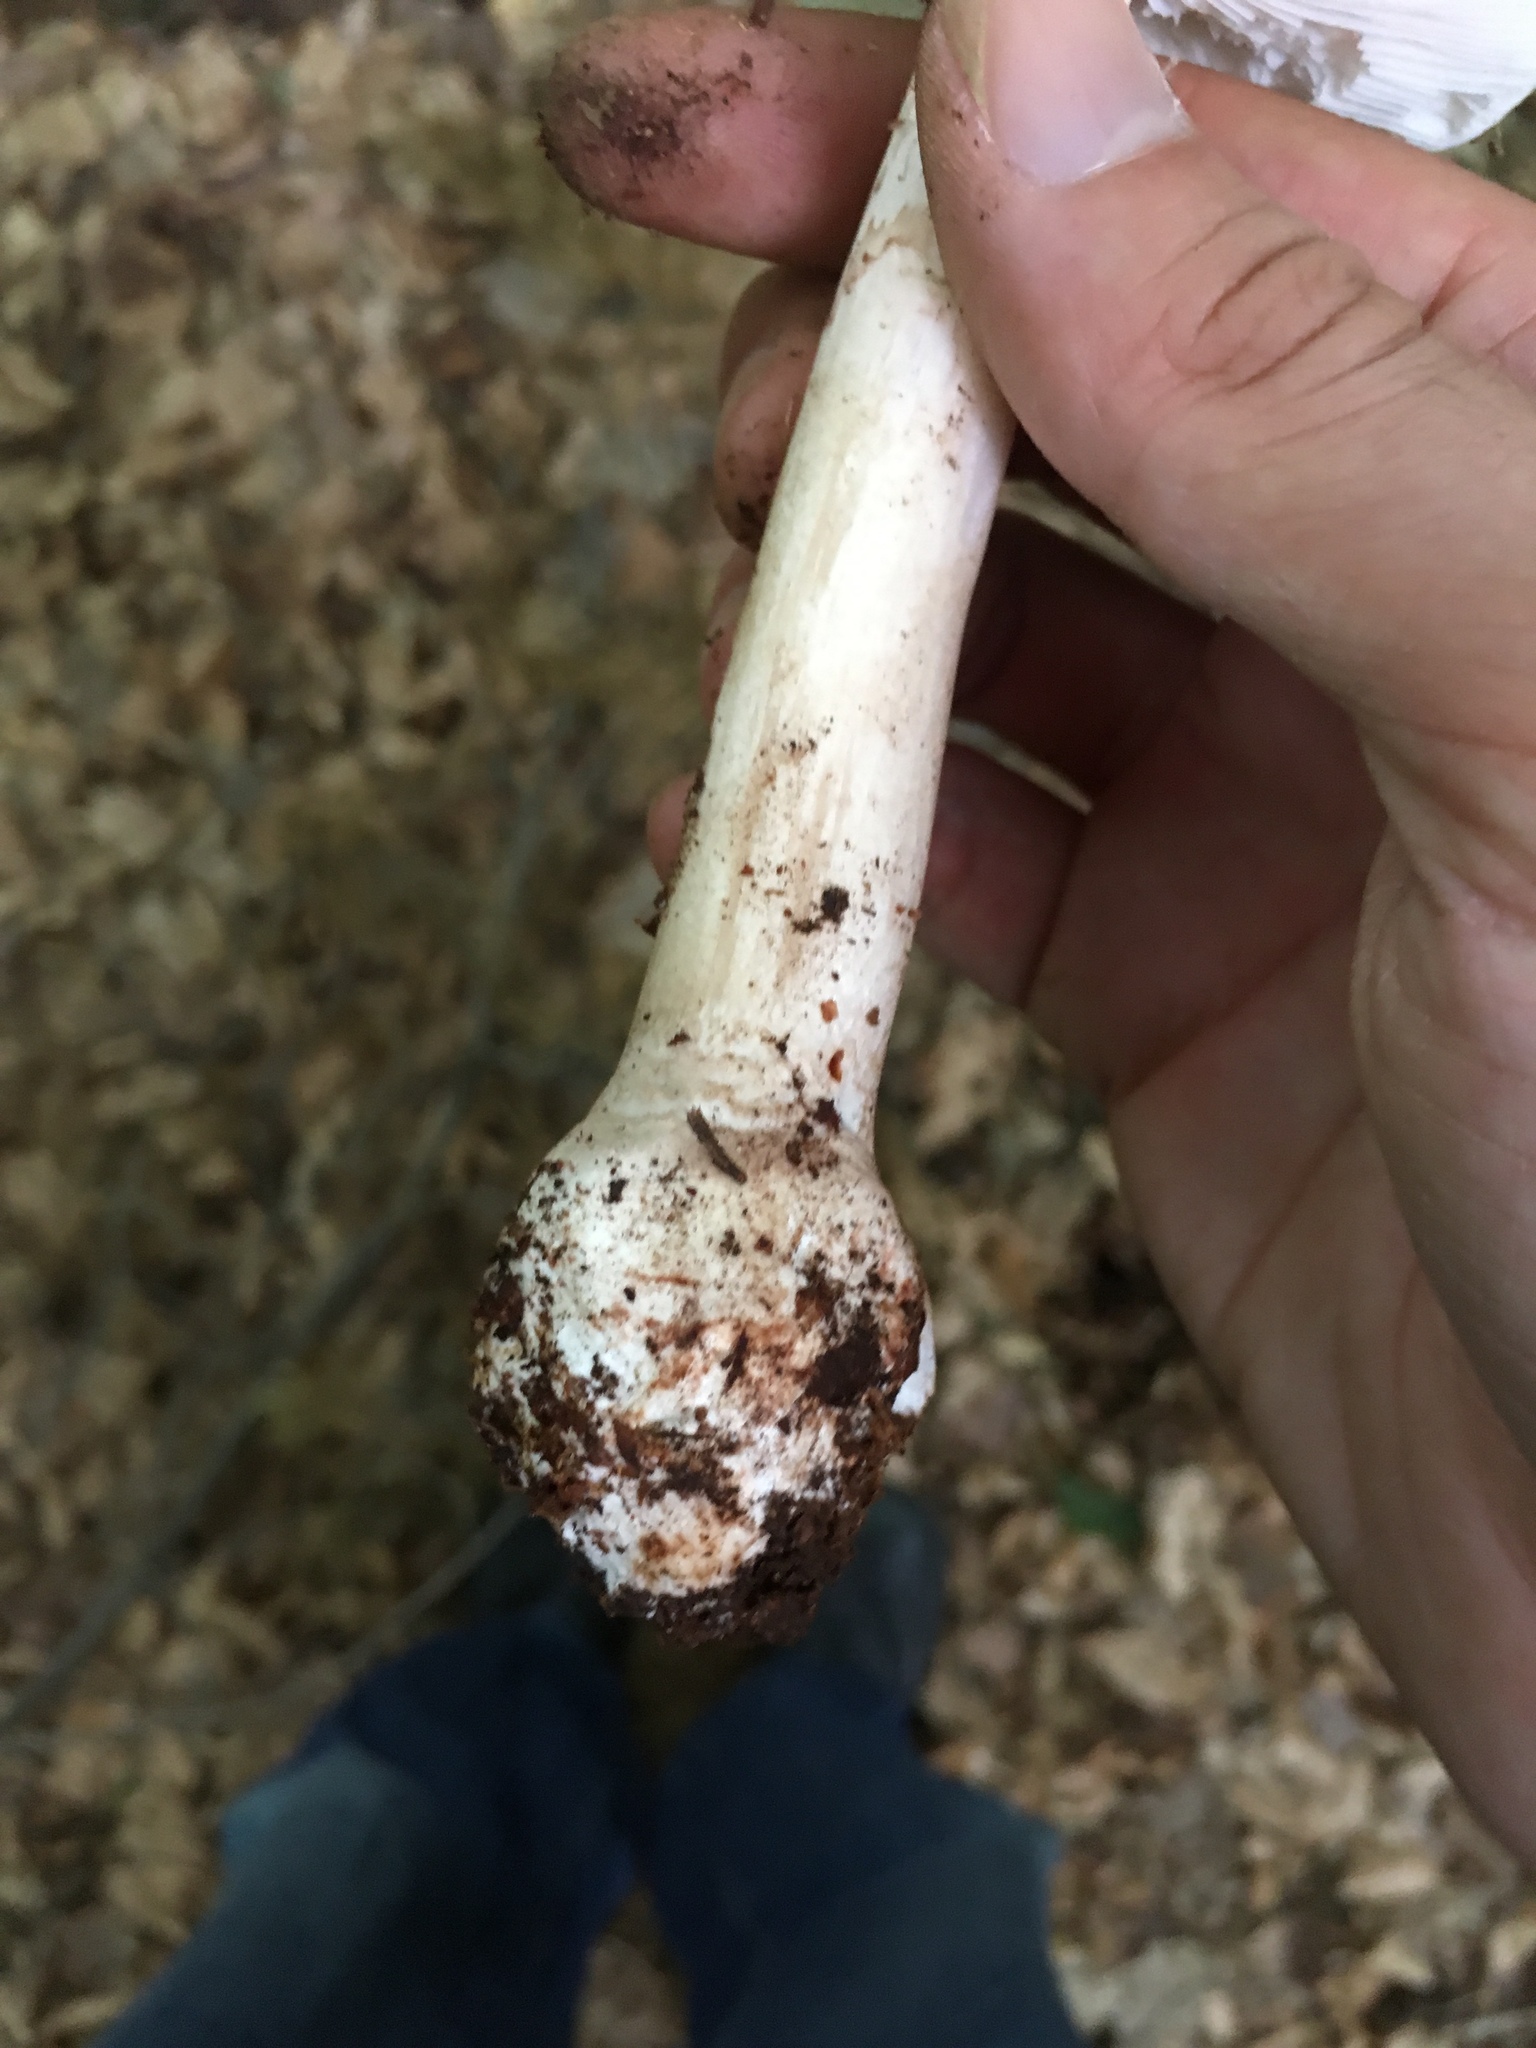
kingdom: Fungi
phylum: Basidiomycota
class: Agaricomycetes
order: Agaricales
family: Amanitaceae
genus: Amanita
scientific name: Amanita rubescens
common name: Blusher
